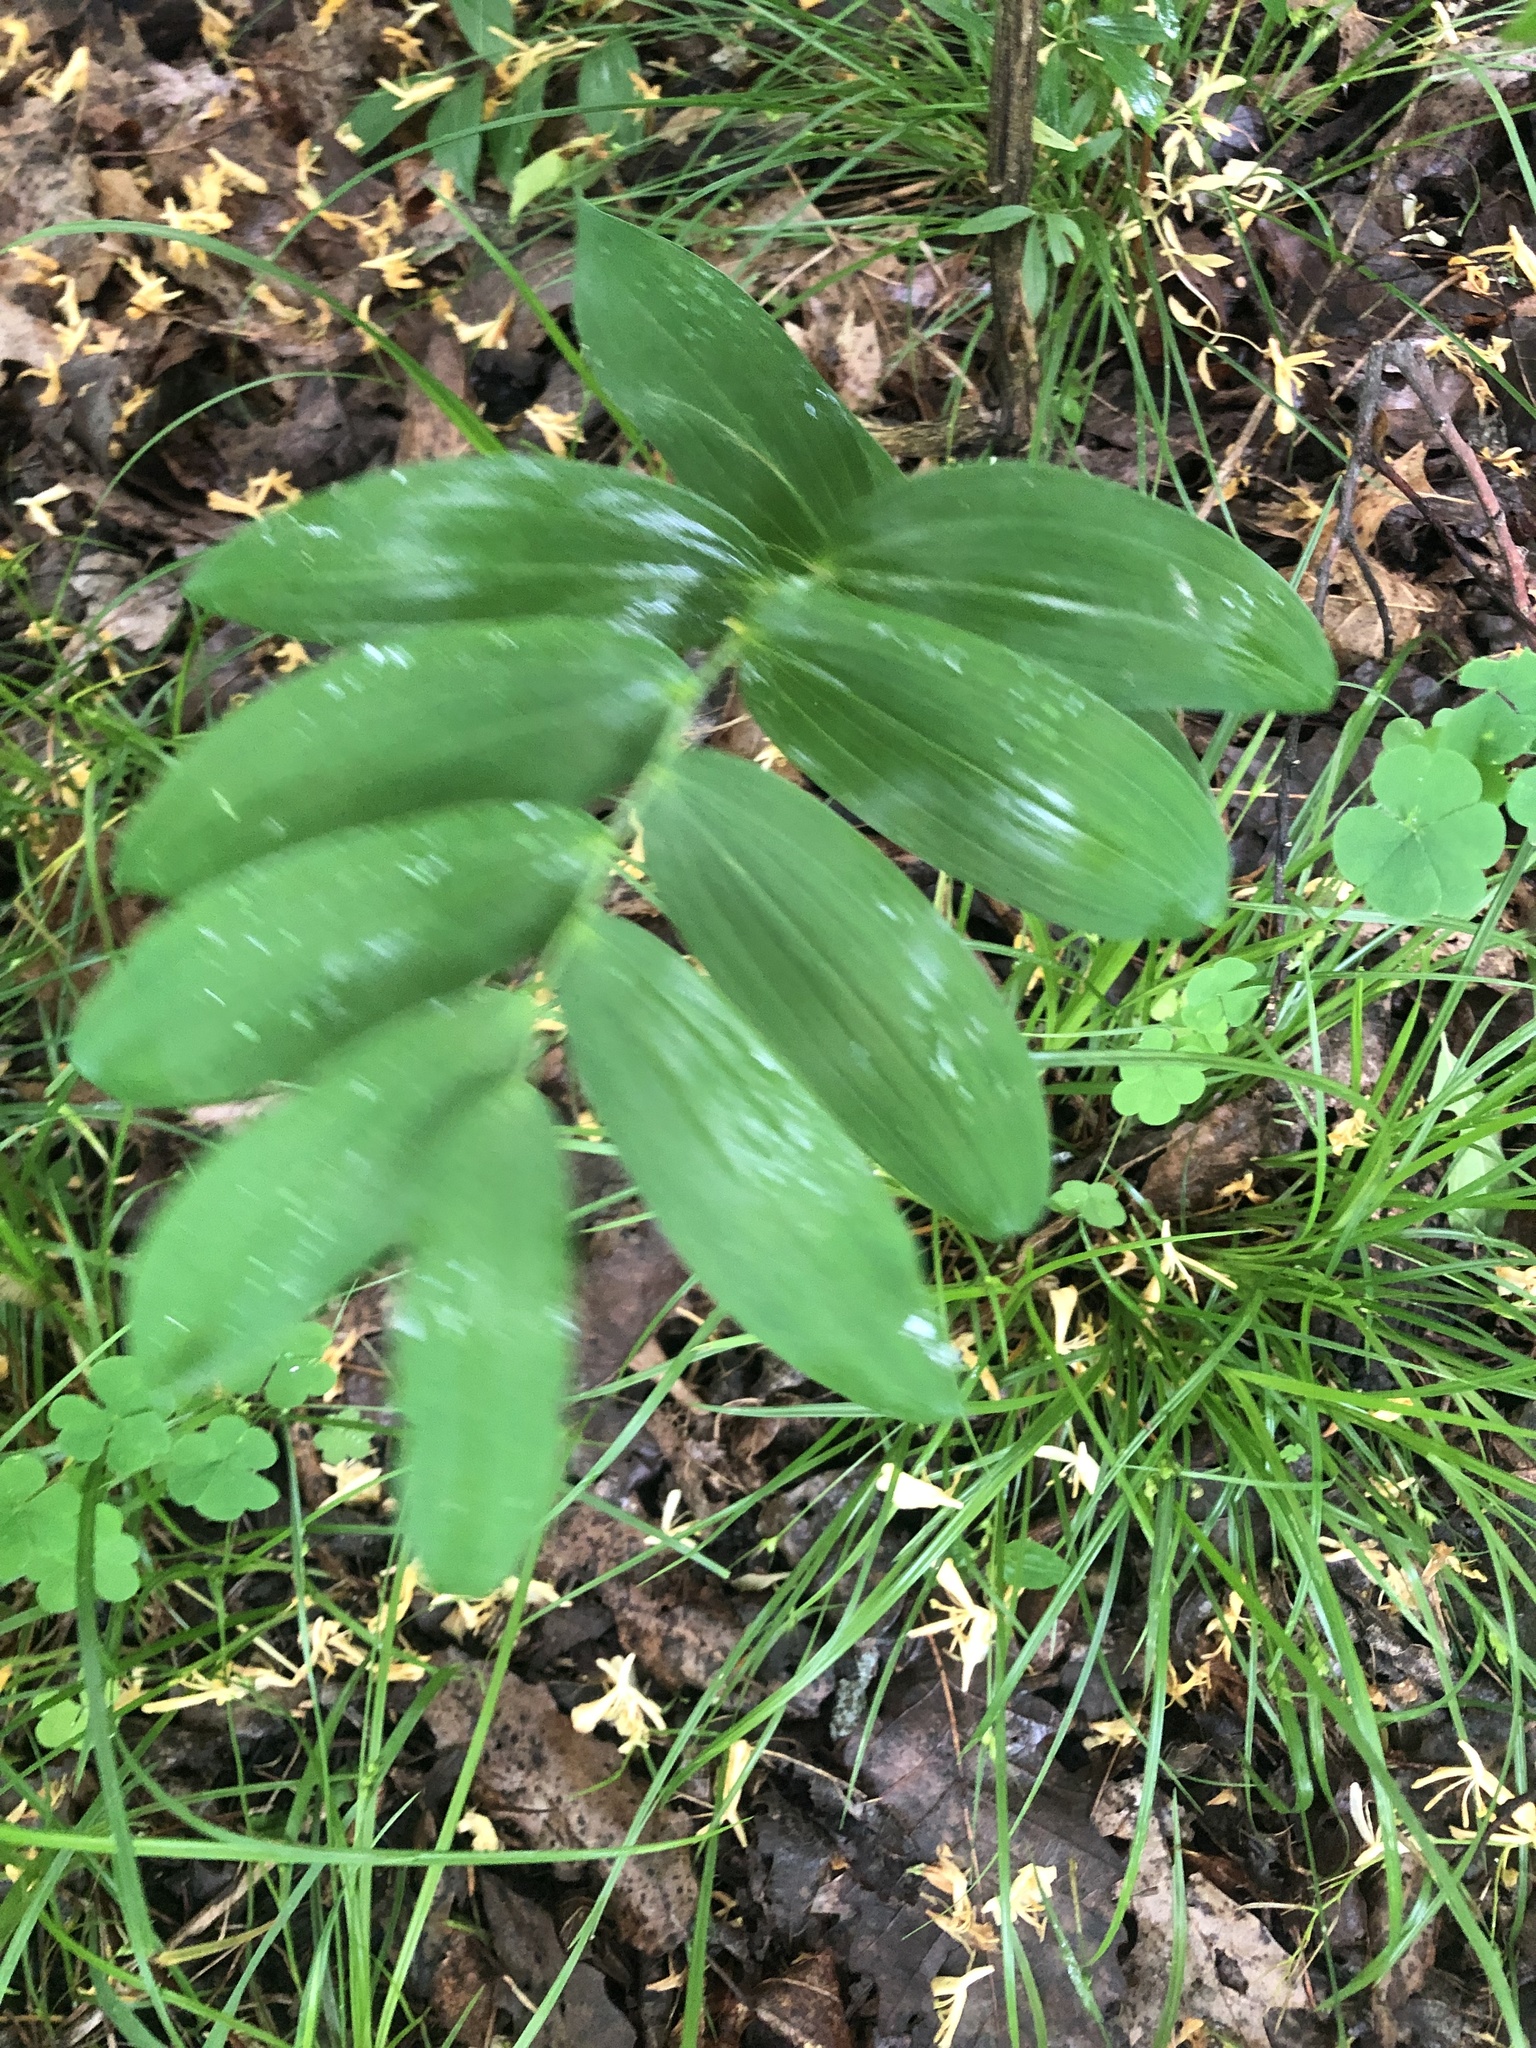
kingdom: Plantae
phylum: Tracheophyta
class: Liliopsida
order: Asparagales
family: Asparagaceae
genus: Polygonatum
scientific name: Polygonatum biflorum
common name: American solomon's-seal
